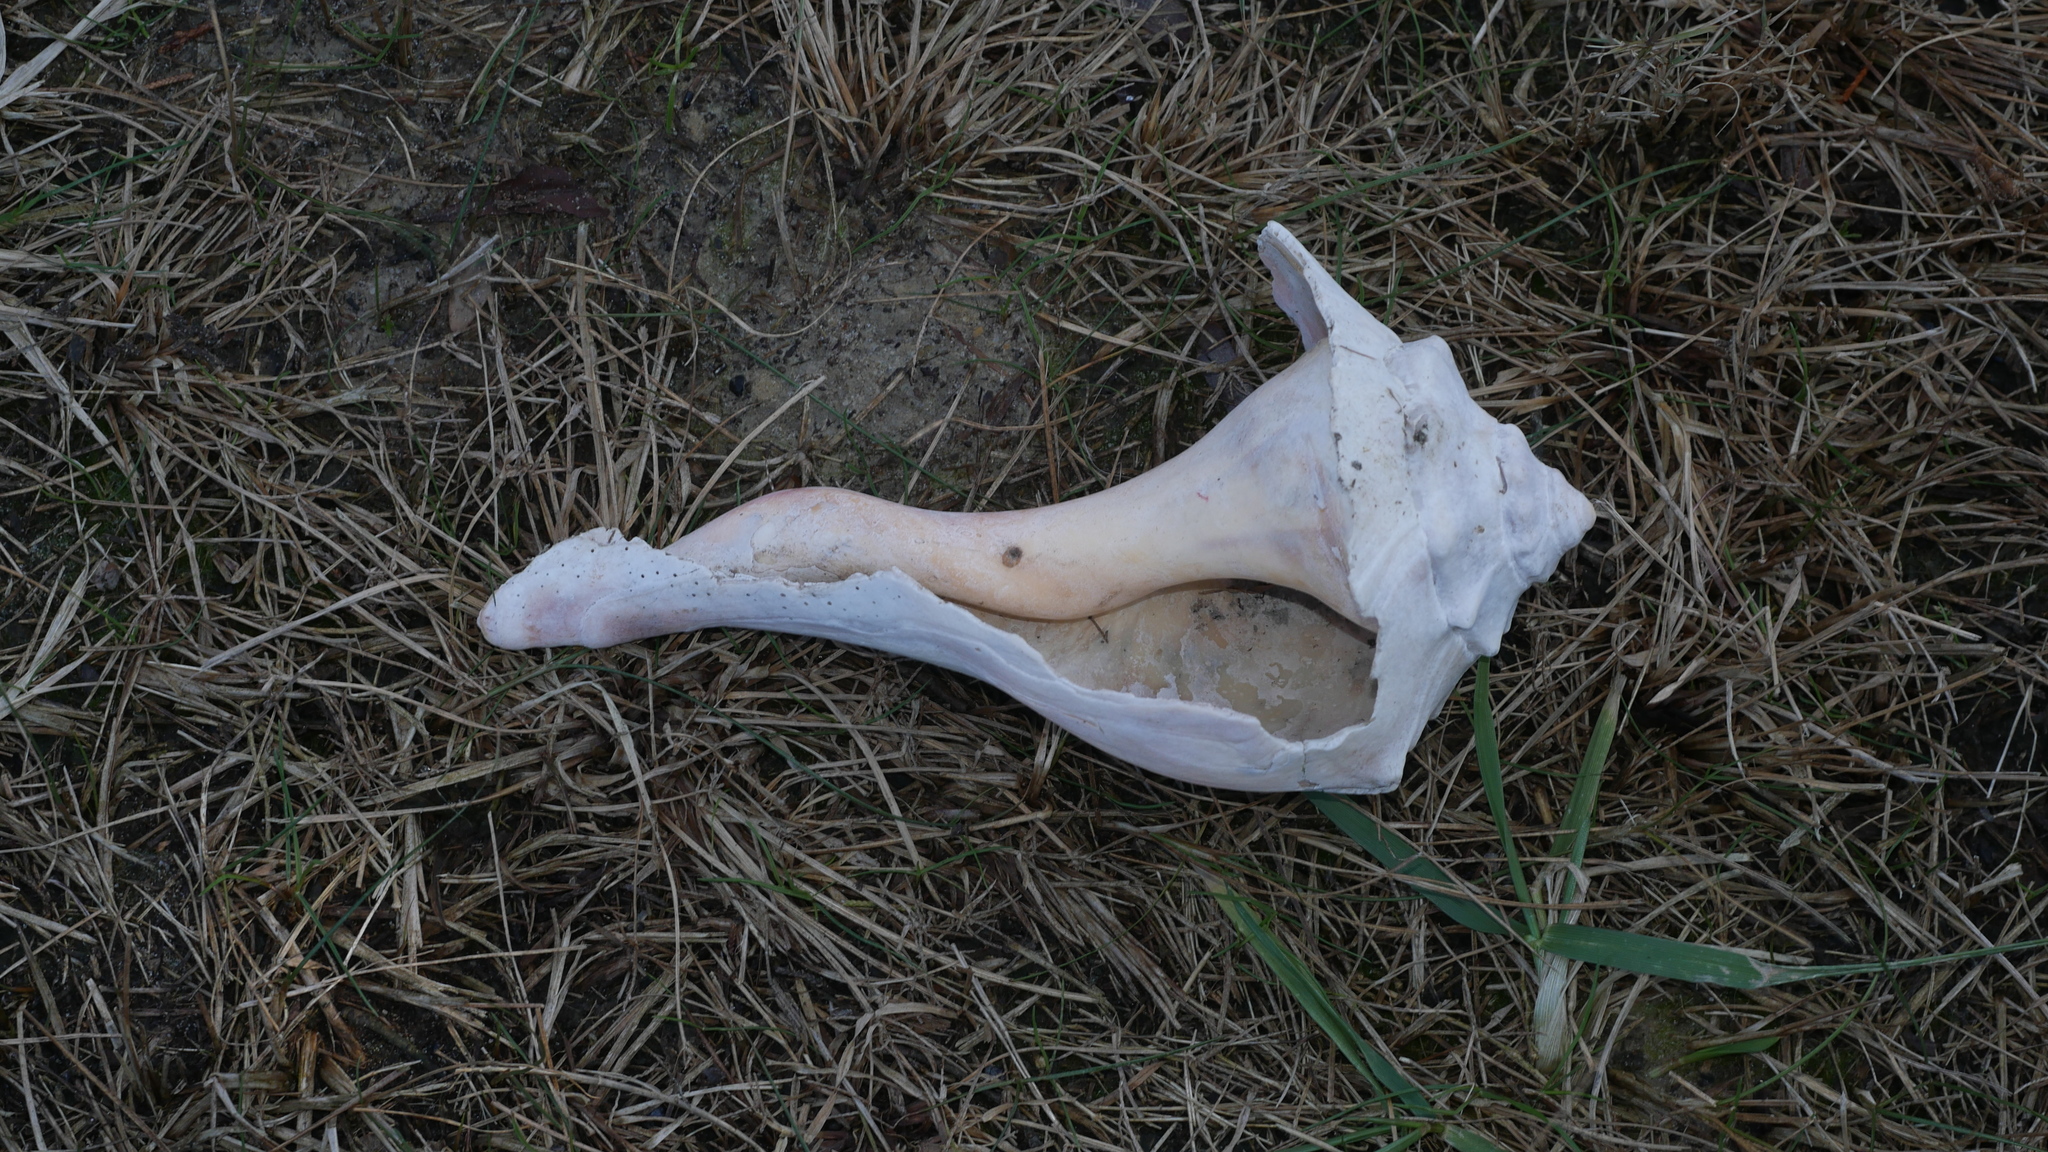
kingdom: Animalia
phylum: Mollusca
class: Gastropoda
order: Neogastropoda
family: Busyconidae
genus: Busycon
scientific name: Busycon carica
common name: Knobbed whelk
